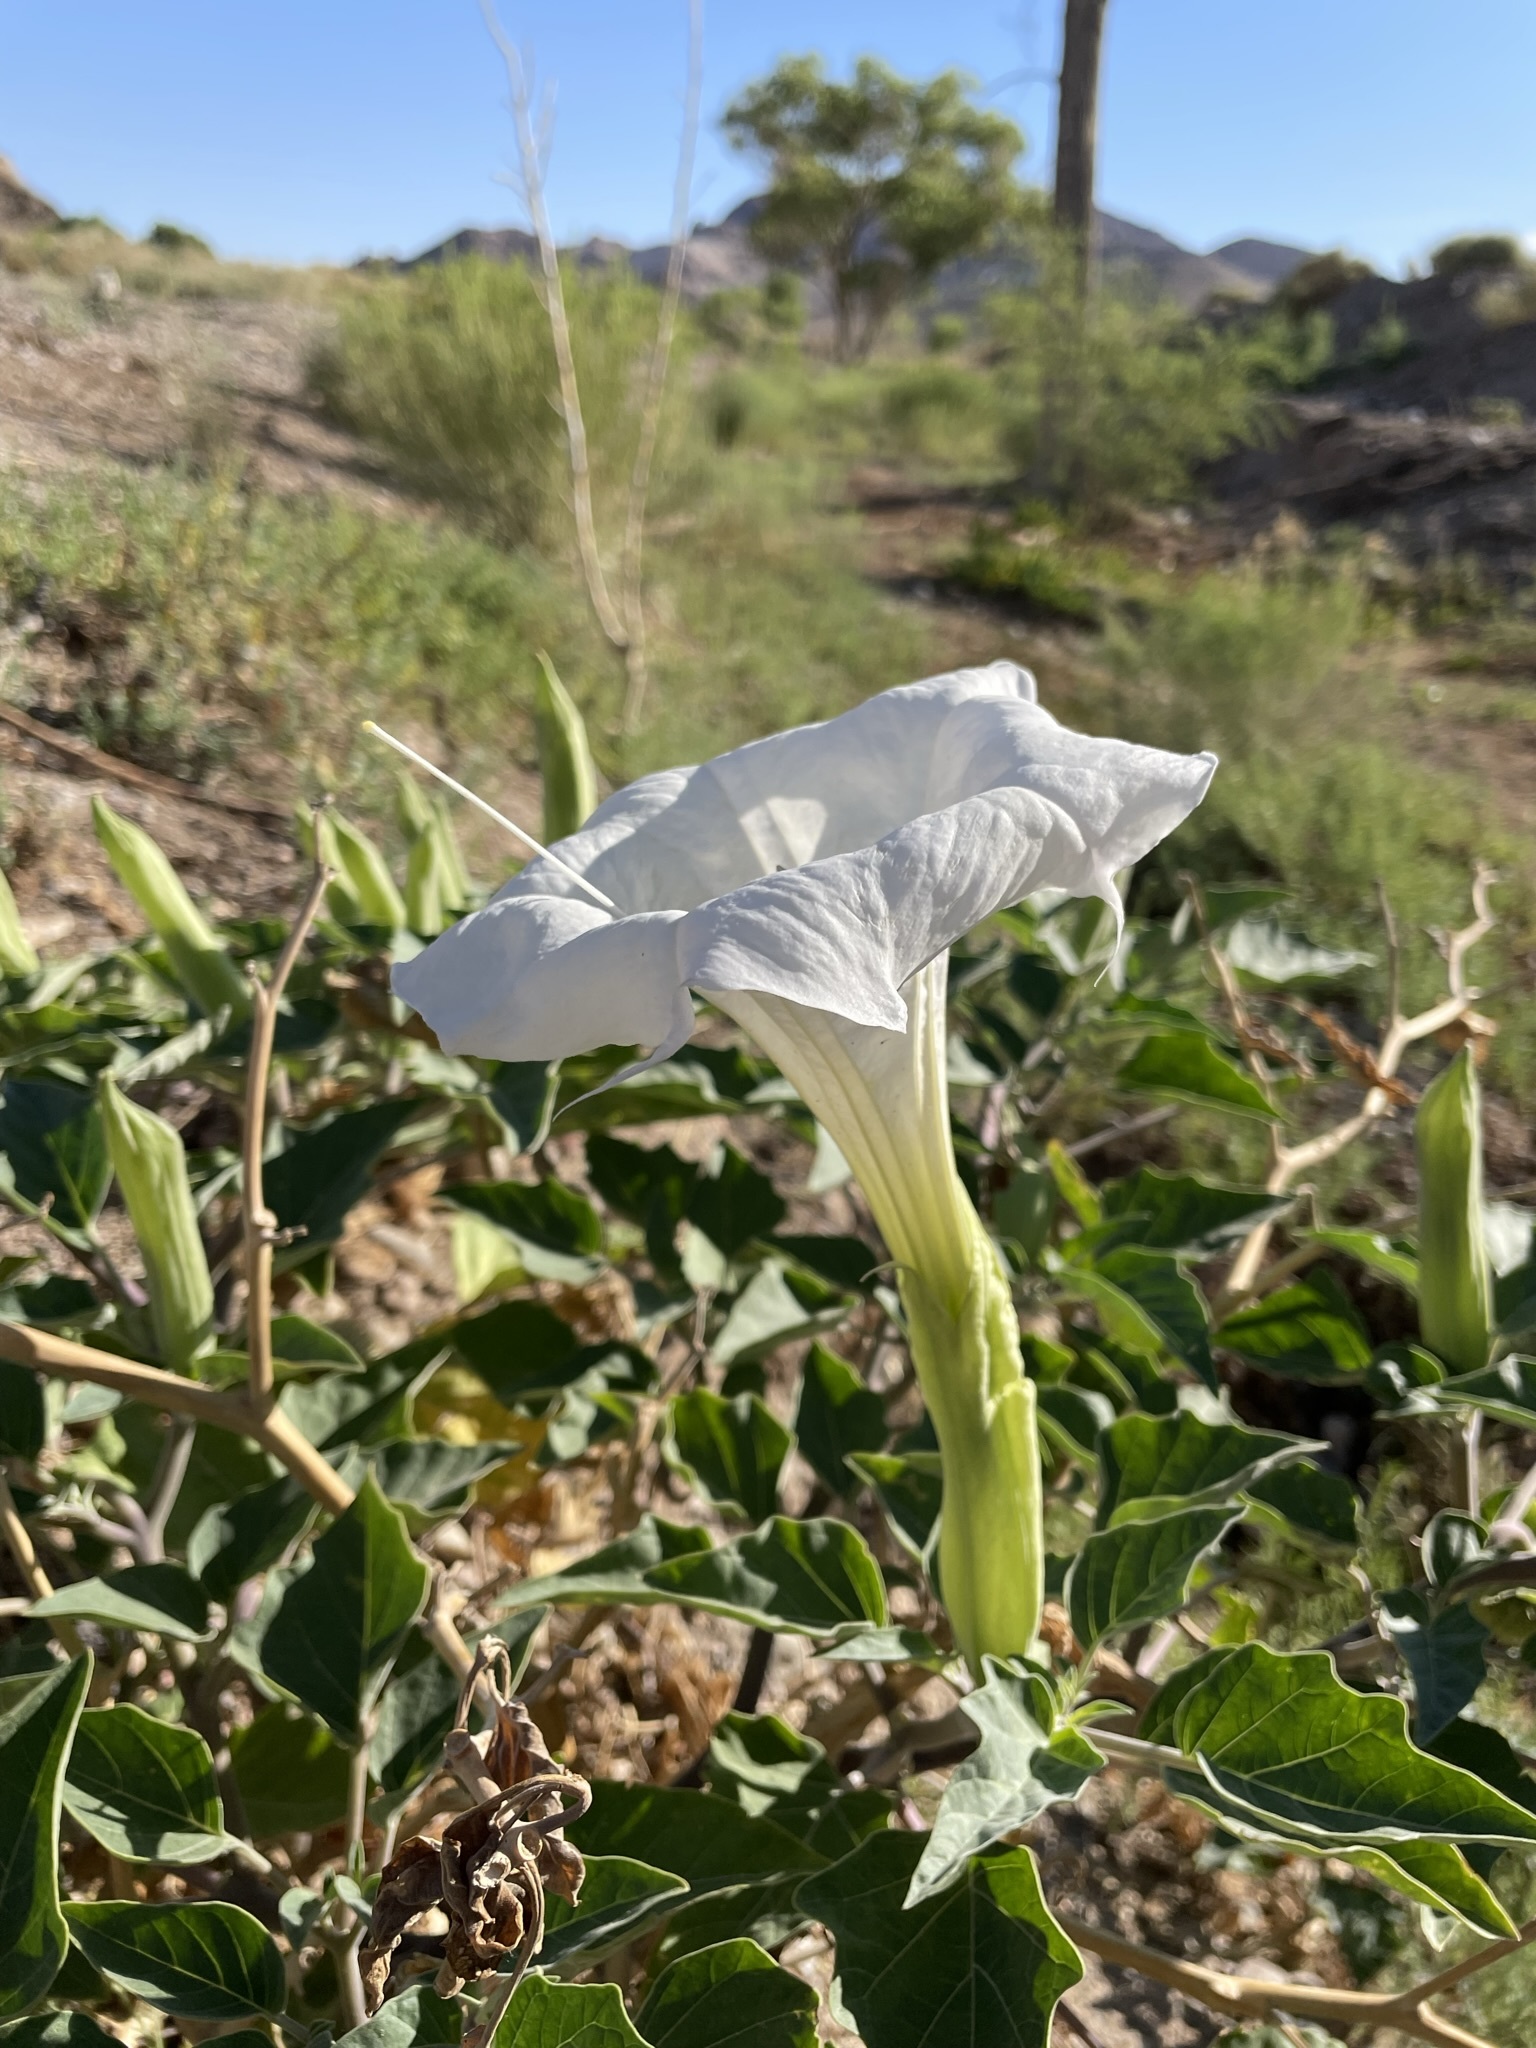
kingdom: Plantae
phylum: Tracheophyta
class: Magnoliopsida
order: Solanales
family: Solanaceae
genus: Datura
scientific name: Datura wrightii
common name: Sacred thorn-apple
